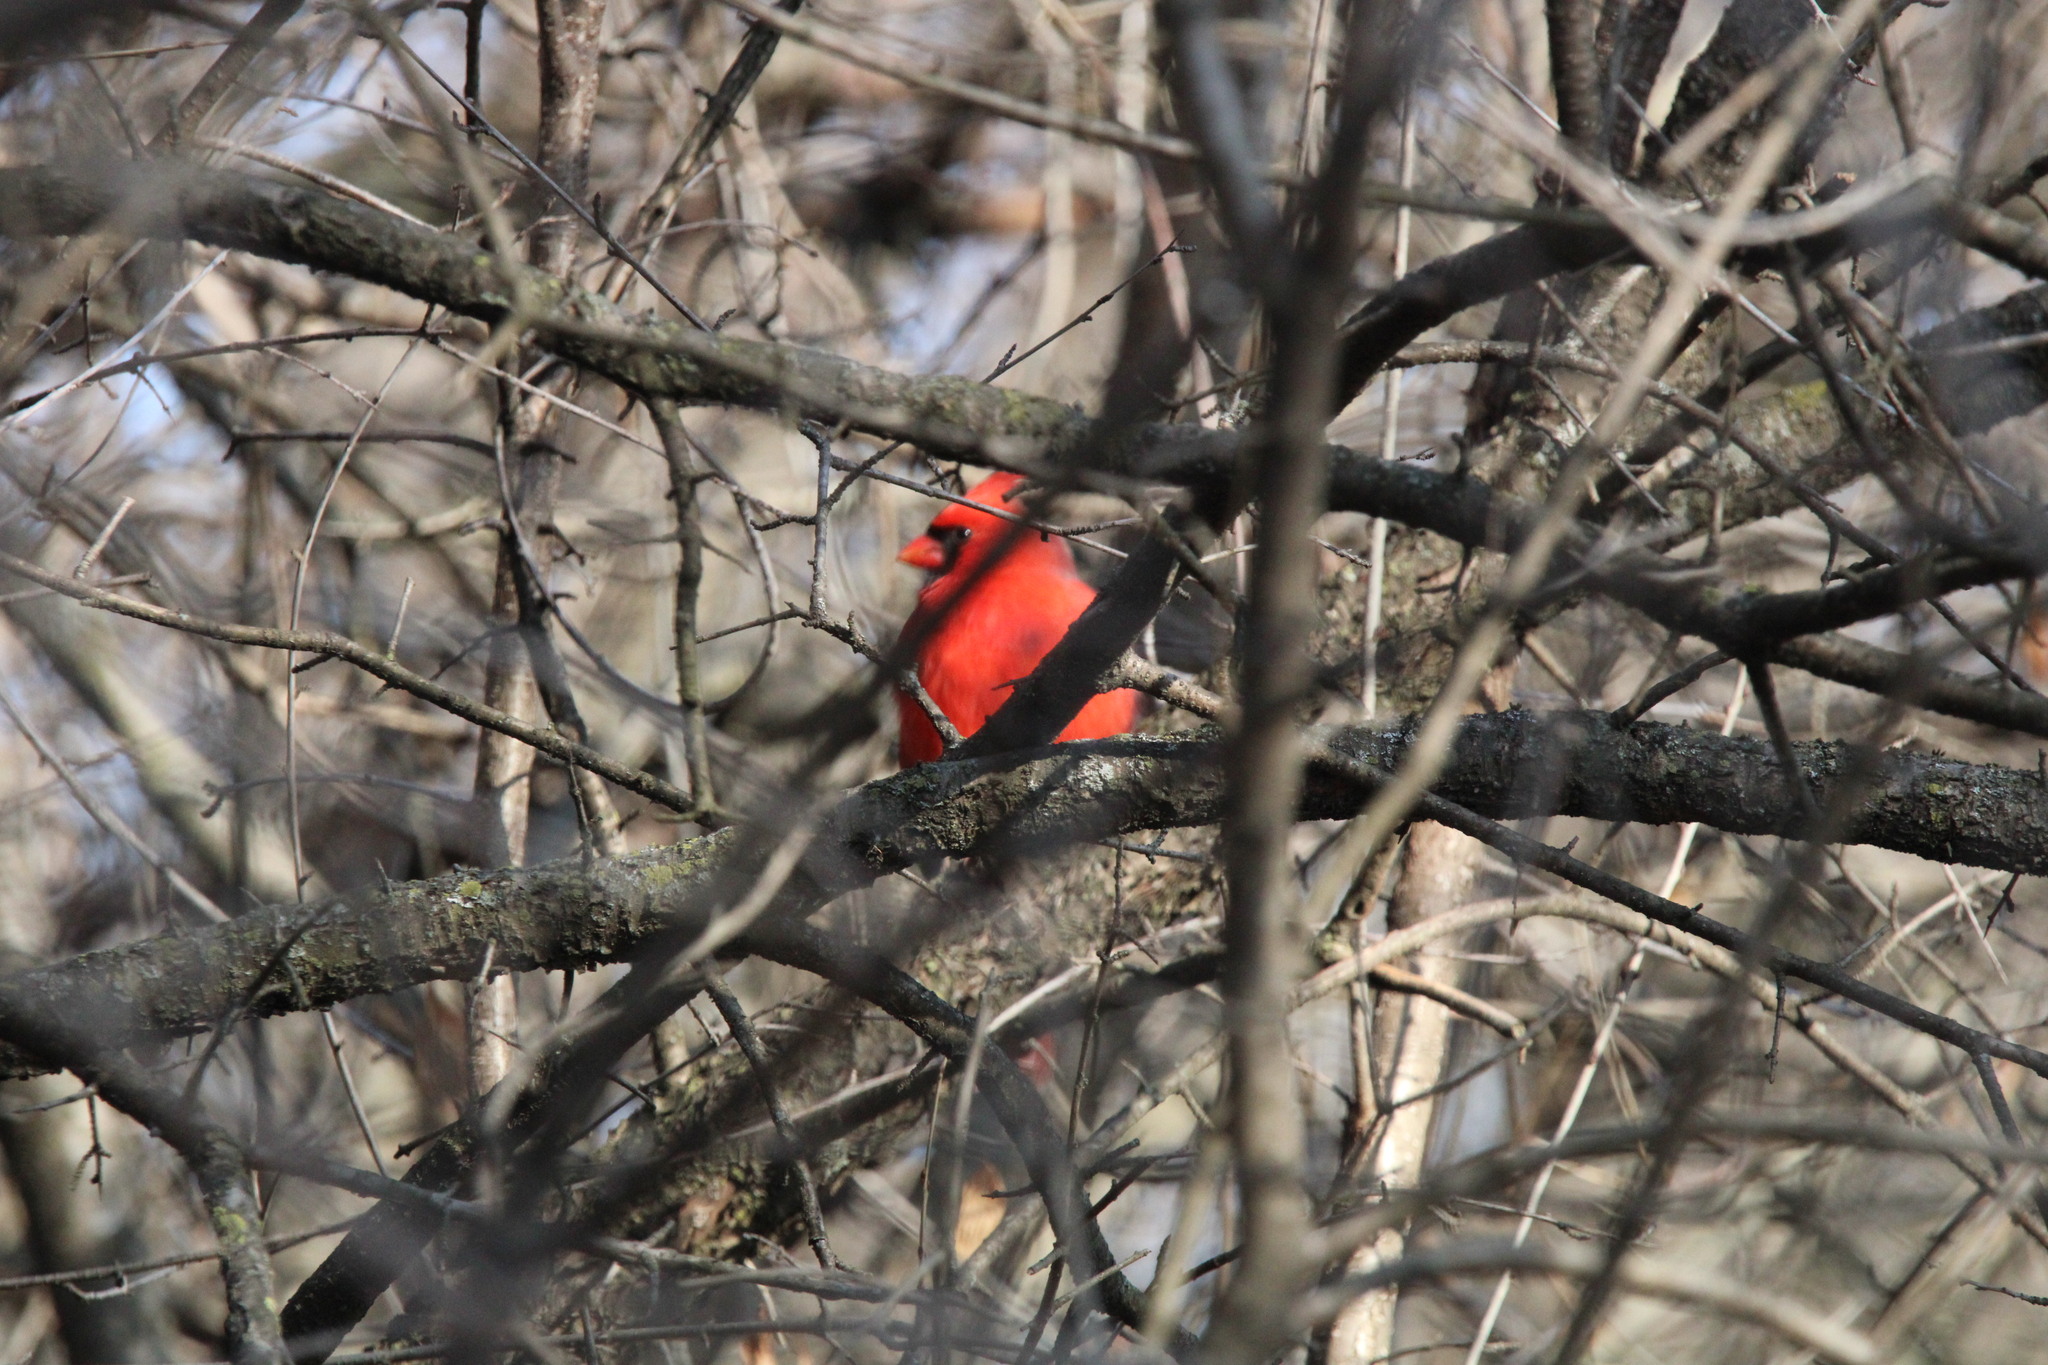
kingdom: Animalia
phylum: Chordata
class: Aves
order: Passeriformes
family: Cardinalidae
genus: Cardinalis
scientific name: Cardinalis cardinalis
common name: Northern cardinal
